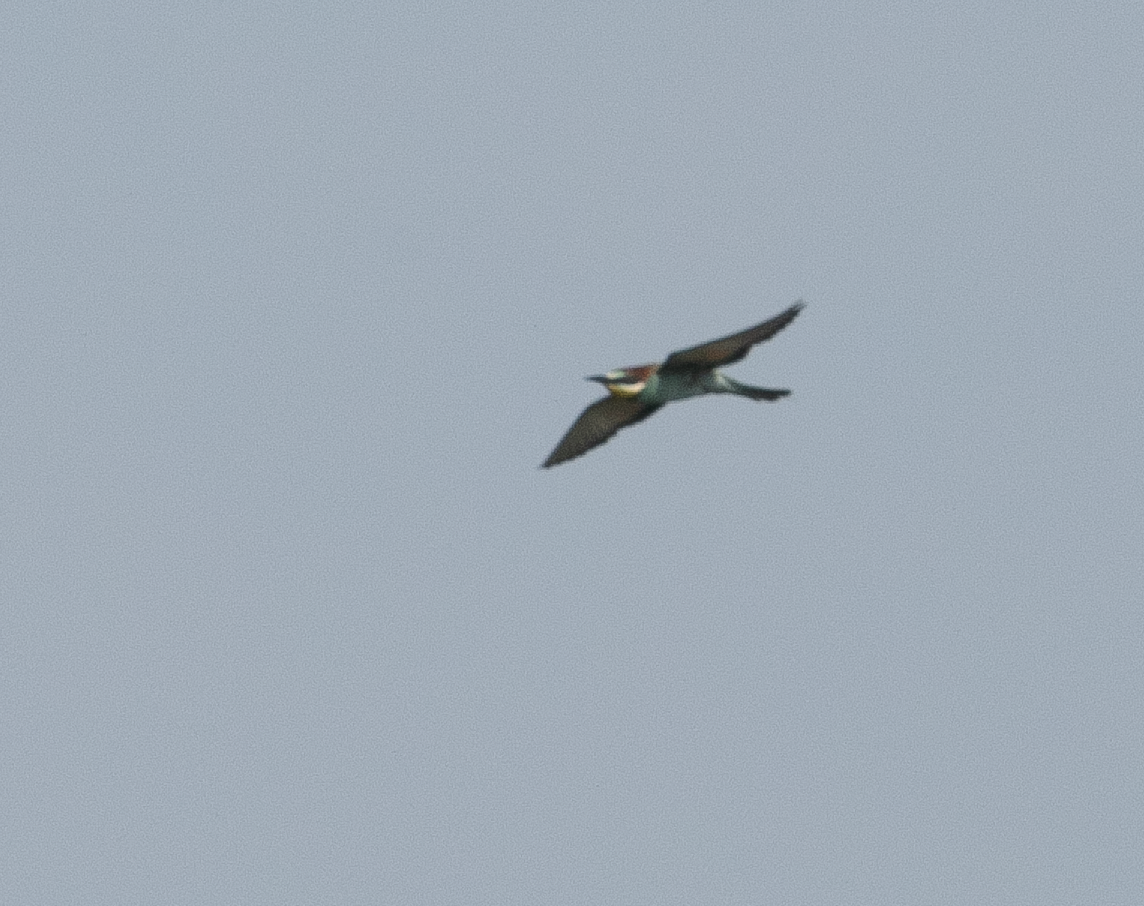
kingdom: Animalia
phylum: Chordata
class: Aves
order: Coraciiformes
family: Meropidae
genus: Merops
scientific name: Merops apiaster
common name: European bee-eater
